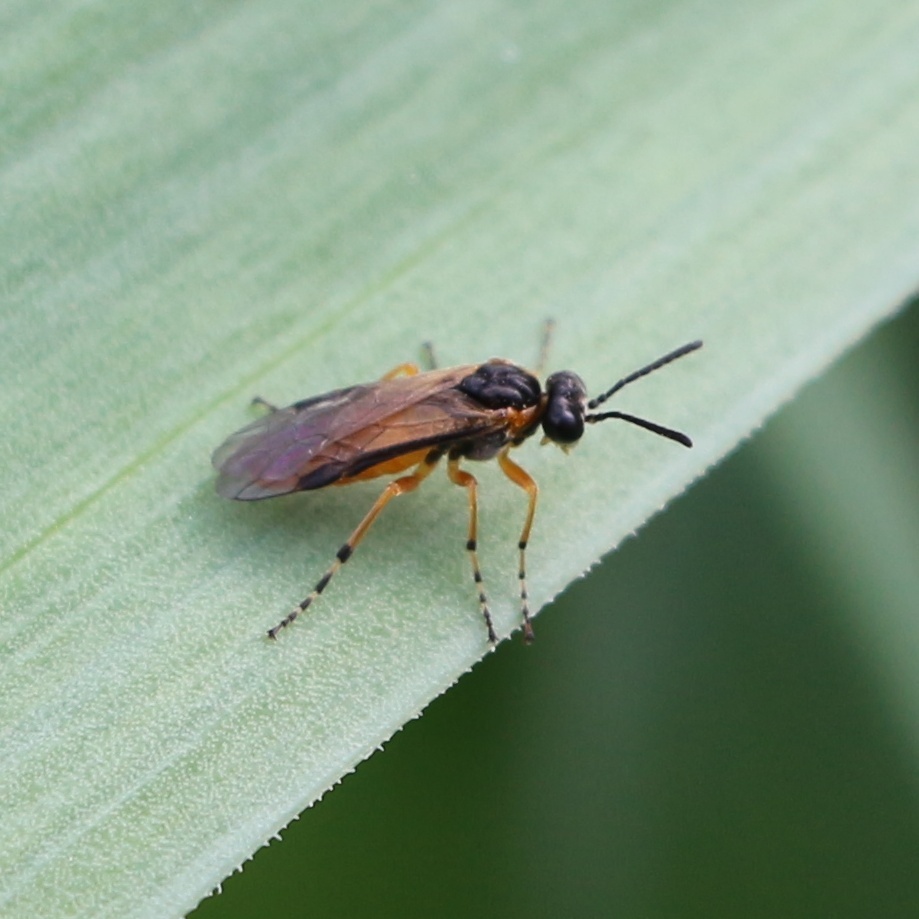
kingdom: Animalia
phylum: Arthropoda
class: Insecta
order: Hymenoptera
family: Tenthredinidae
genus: Athalia
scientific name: Athalia cordata
